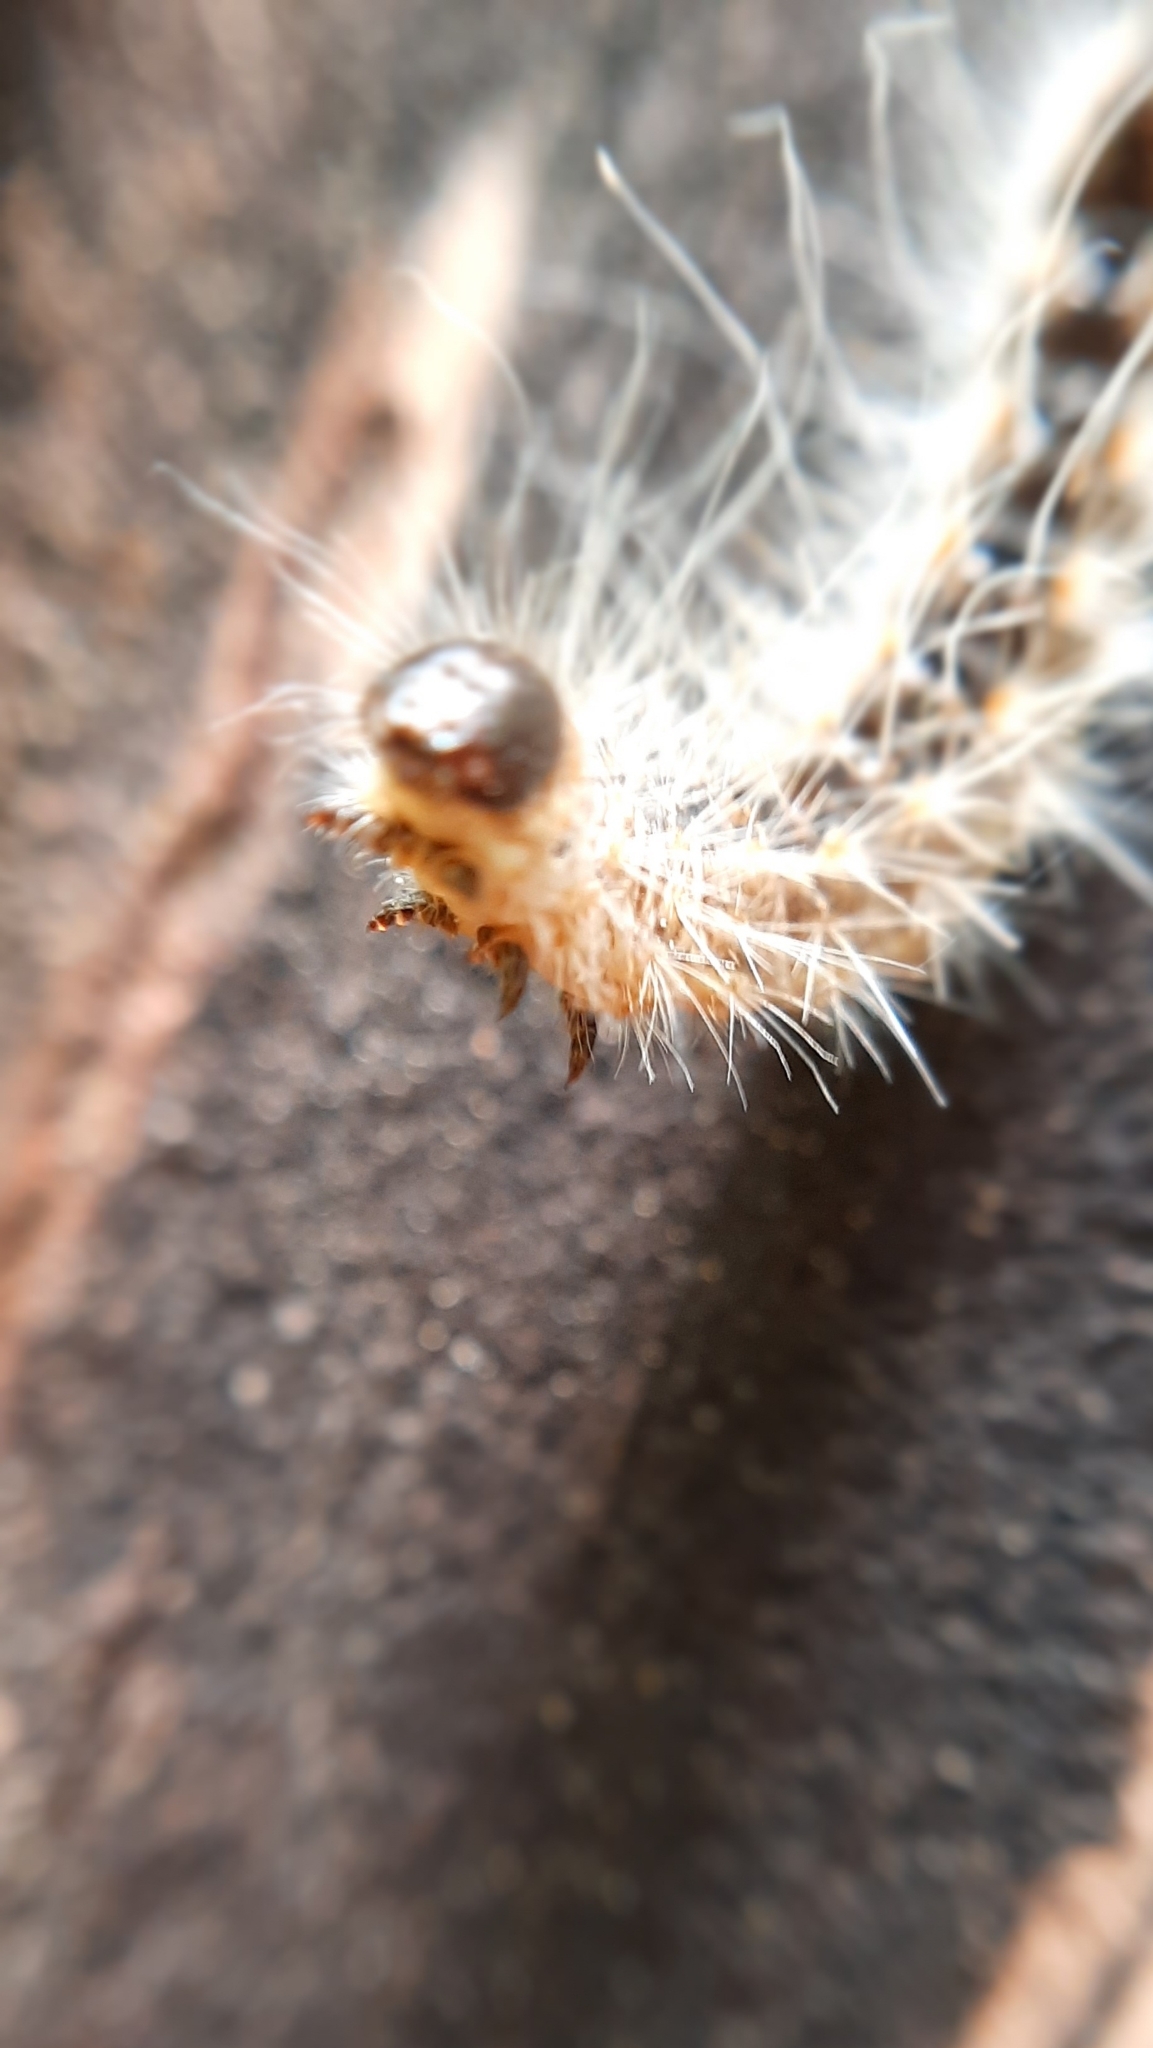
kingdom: Animalia
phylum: Arthropoda
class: Insecta
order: Lepidoptera
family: Notodontidae
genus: Thaumetopoea
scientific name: Thaumetopoea processionea
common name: Oak processionea
